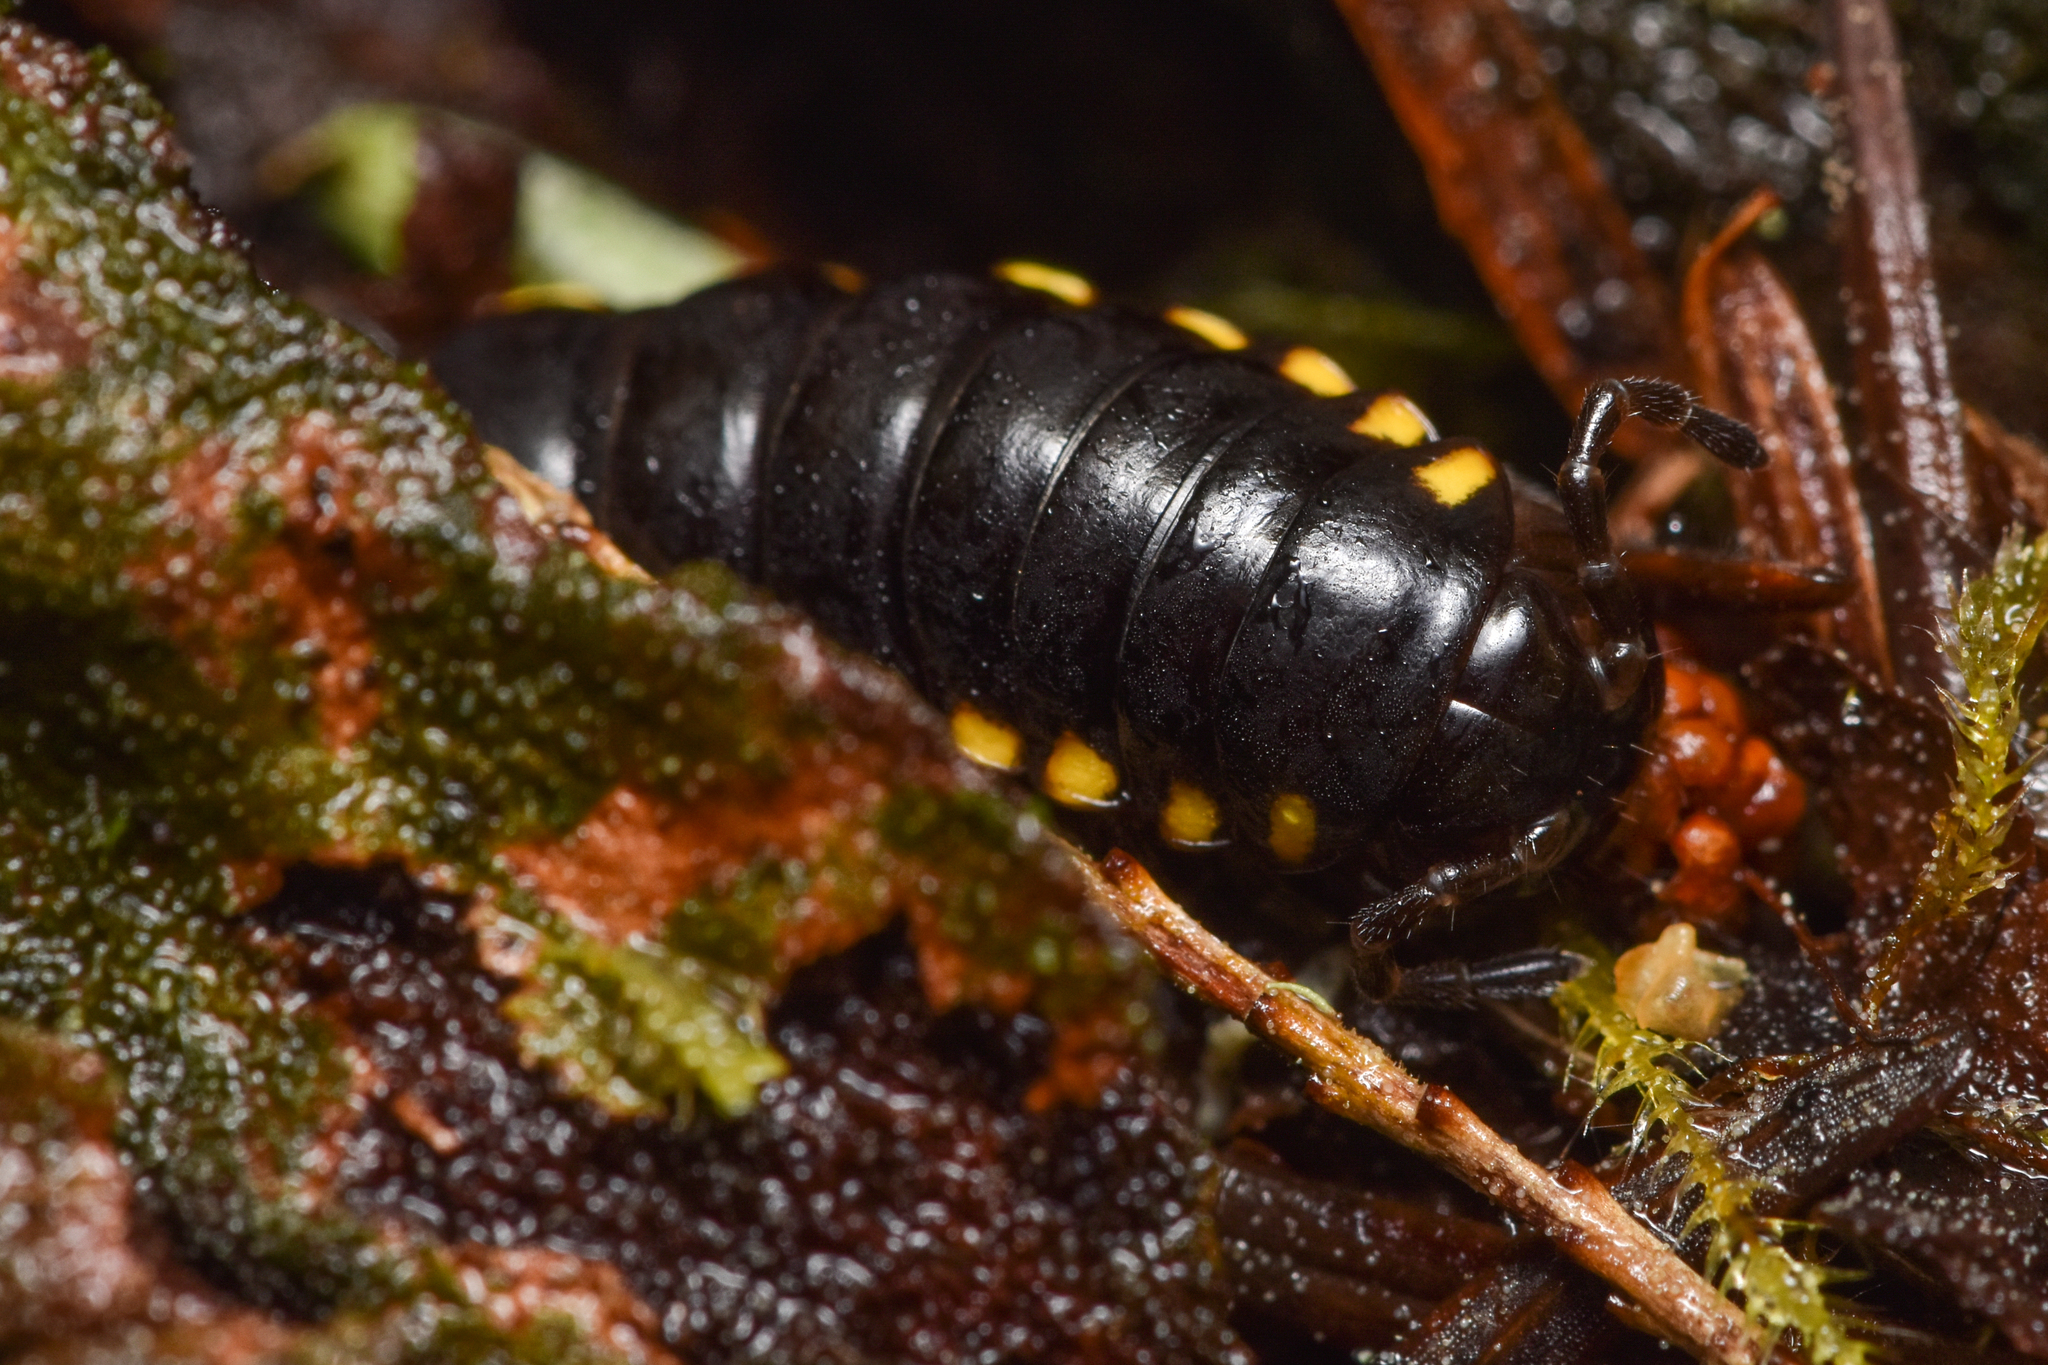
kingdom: Animalia
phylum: Arthropoda
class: Diplopoda
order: Polydesmida
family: Xystodesmidae
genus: Harpaphe
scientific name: Harpaphe haydeniana
